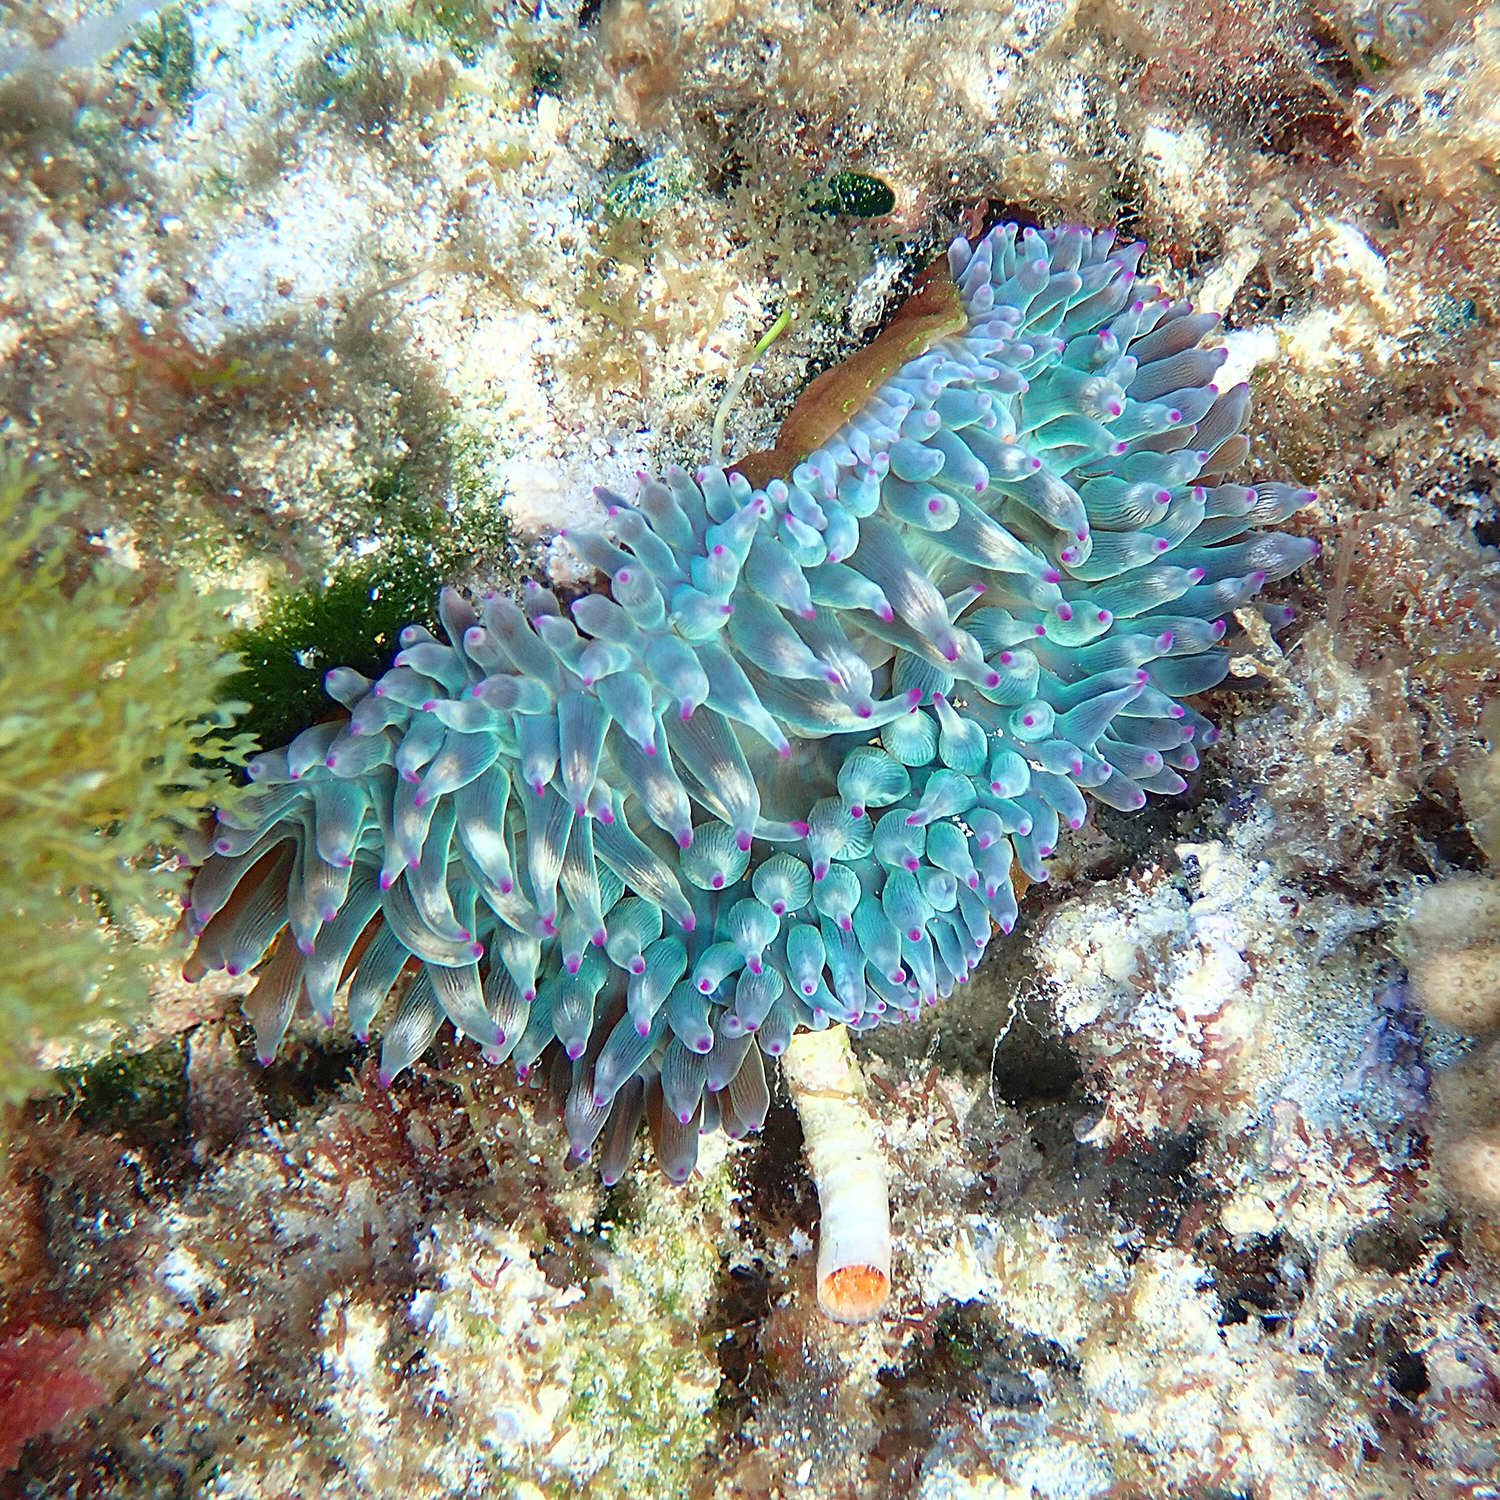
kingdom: Animalia
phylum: Cnidaria
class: Anthozoa
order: Actiniaria
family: Actiniidae
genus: Entacmaea
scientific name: Entacmaea quadricolor
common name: Bulb tentacle sea anemone
